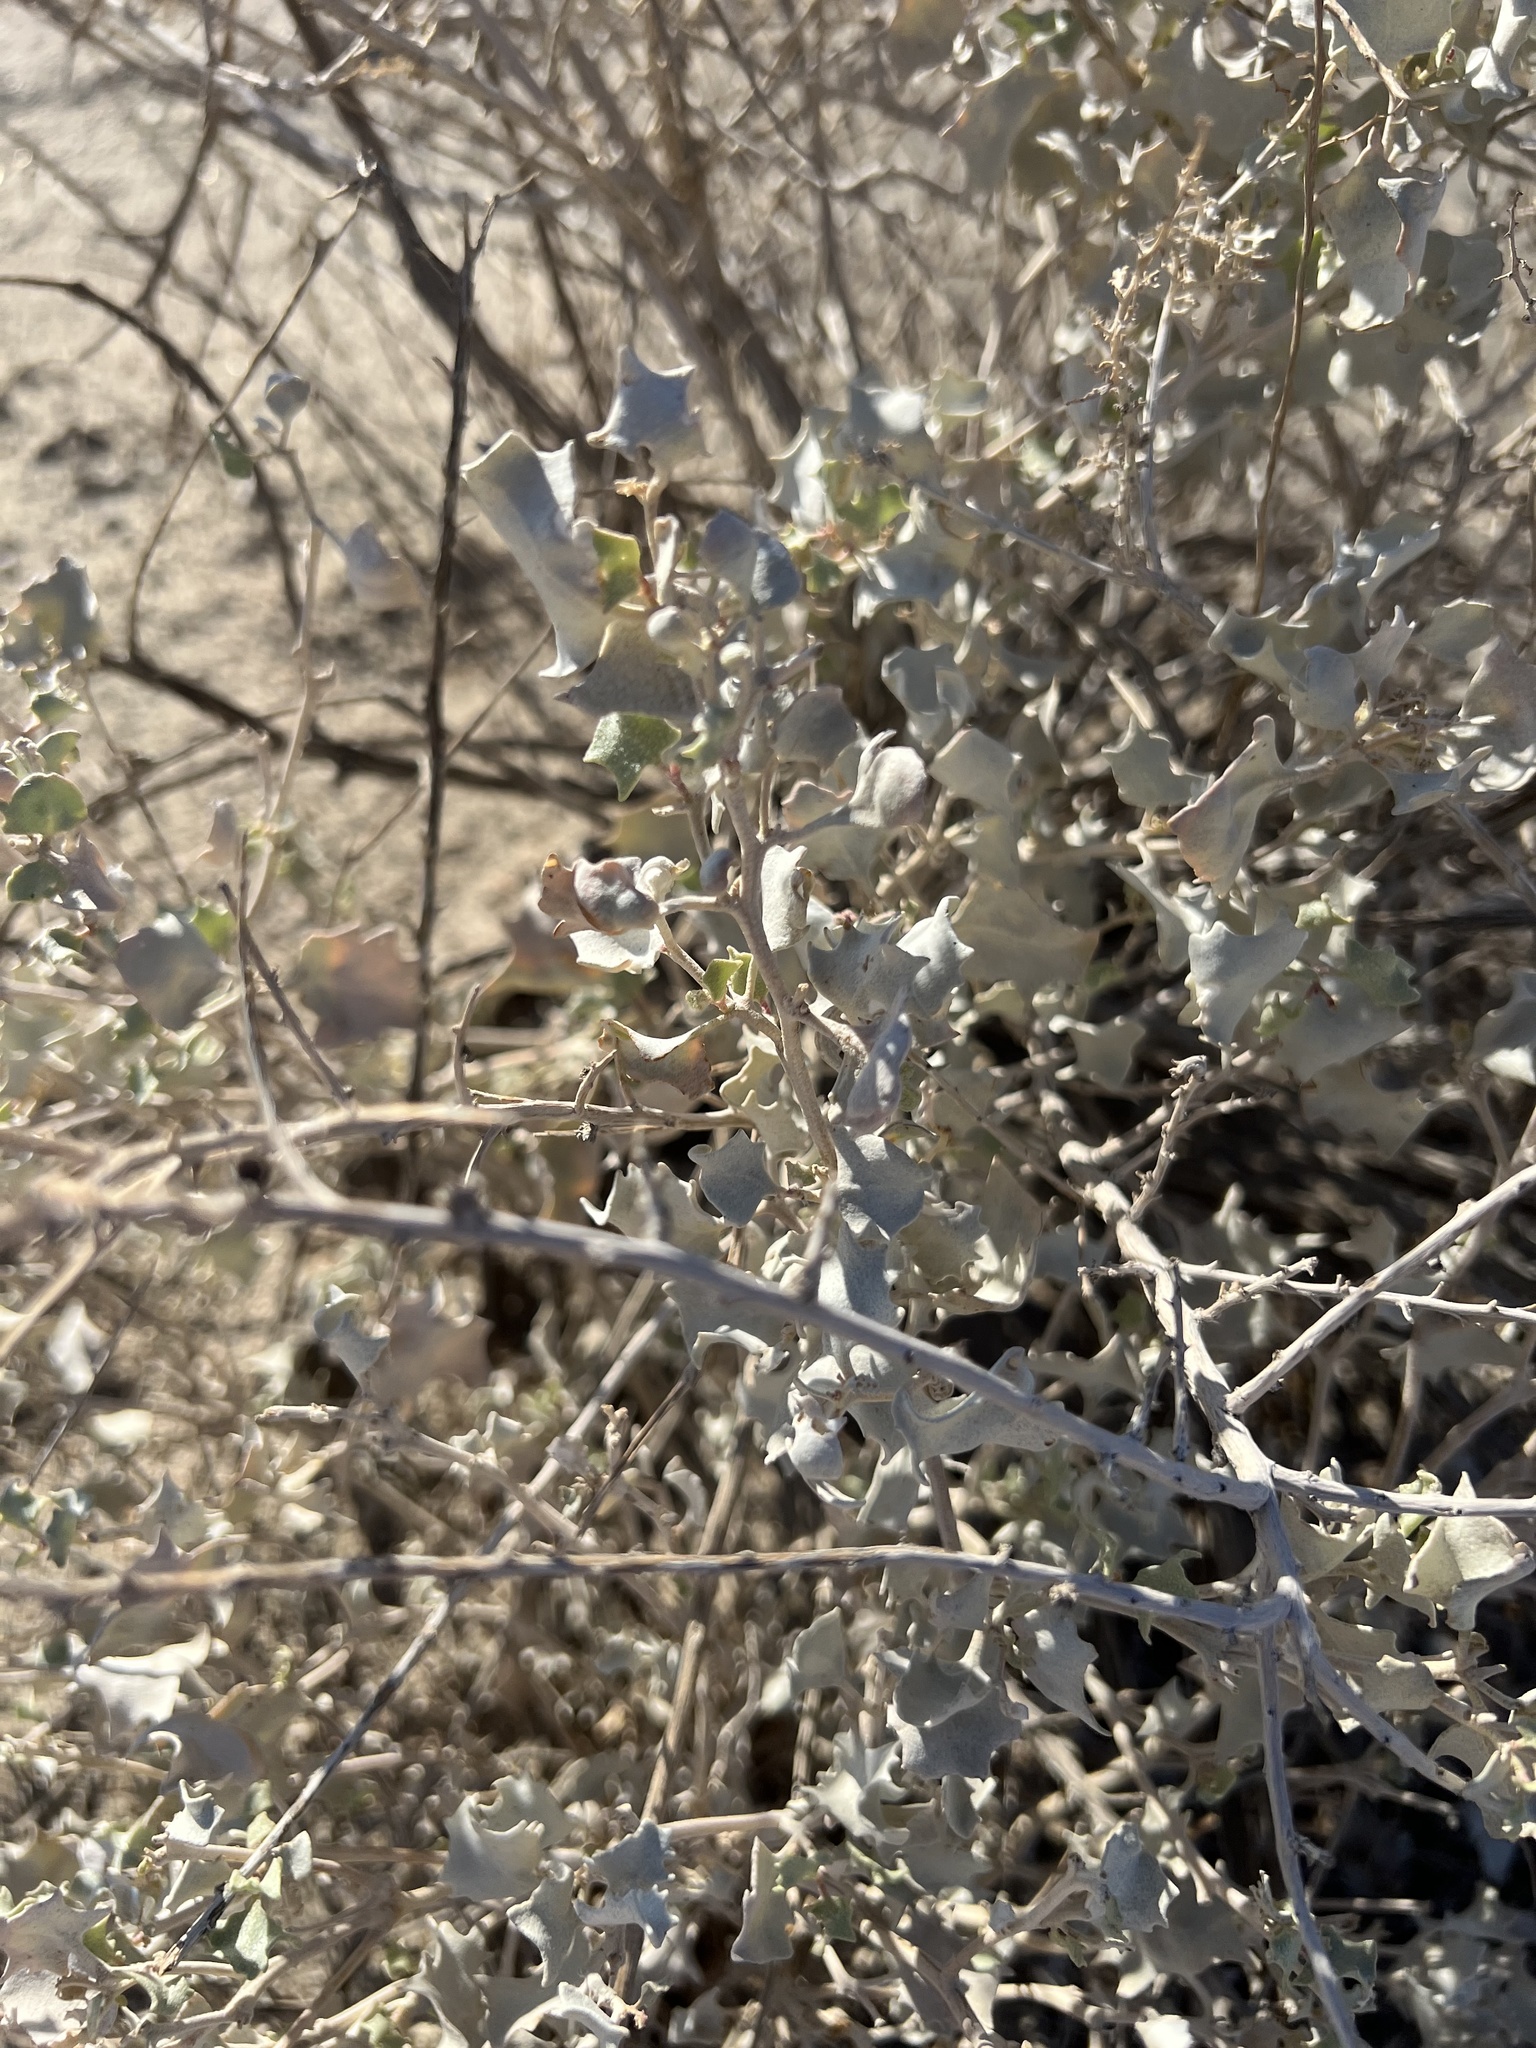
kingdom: Plantae
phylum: Tracheophyta
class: Magnoliopsida
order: Caryophyllales
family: Amaranthaceae
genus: Atriplex
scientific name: Atriplex hymenelytra
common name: Desert-holly
